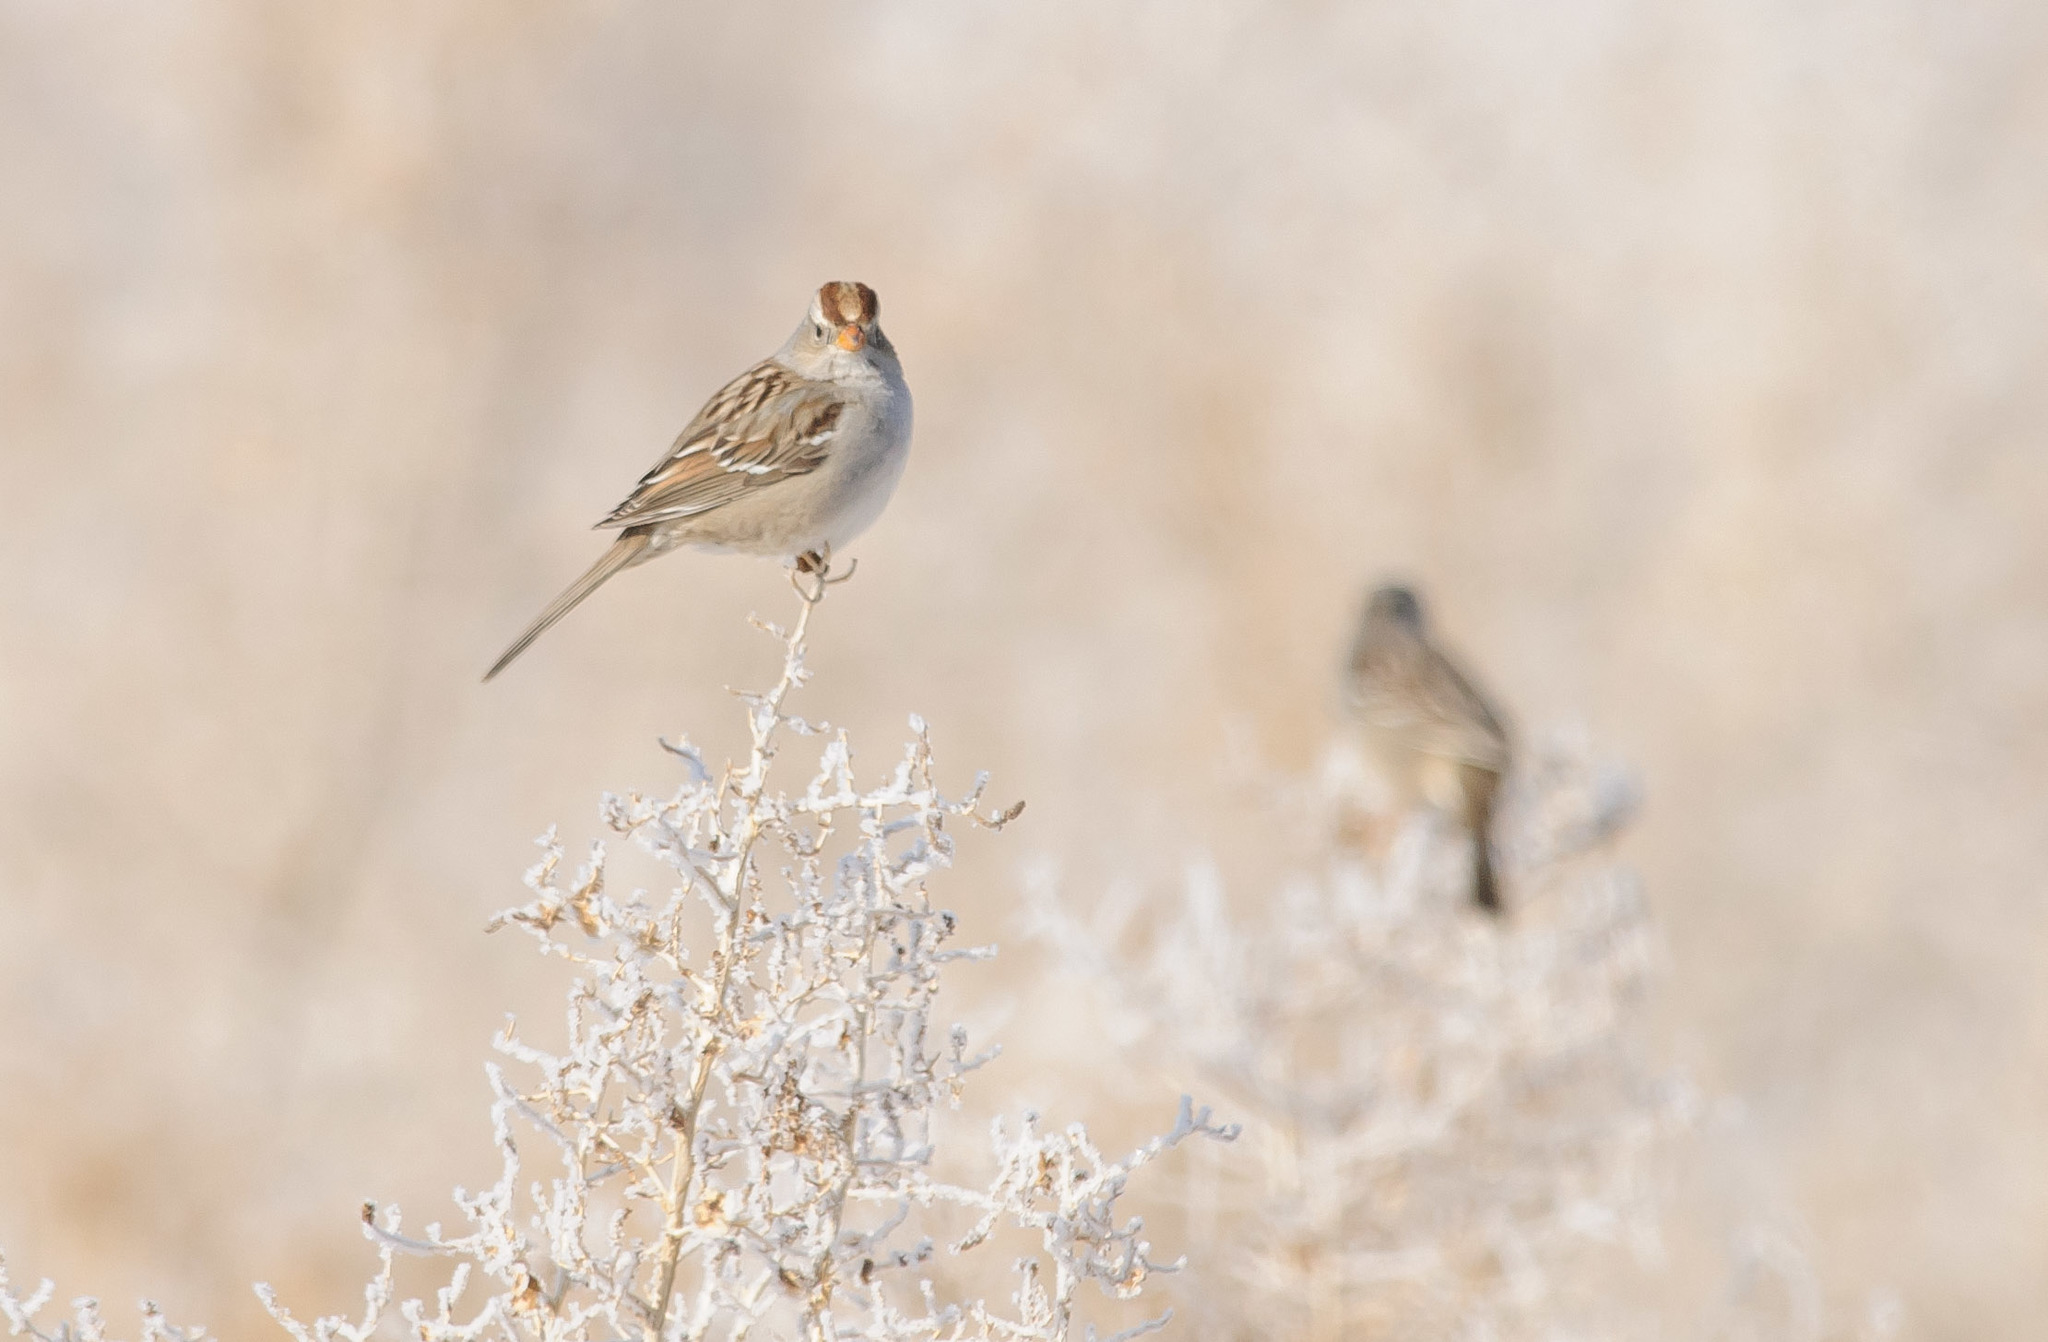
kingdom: Animalia
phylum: Chordata
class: Aves
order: Passeriformes
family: Passerellidae
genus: Zonotrichia
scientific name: Zonotrichia leucophrys
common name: White-crowned sparrow
